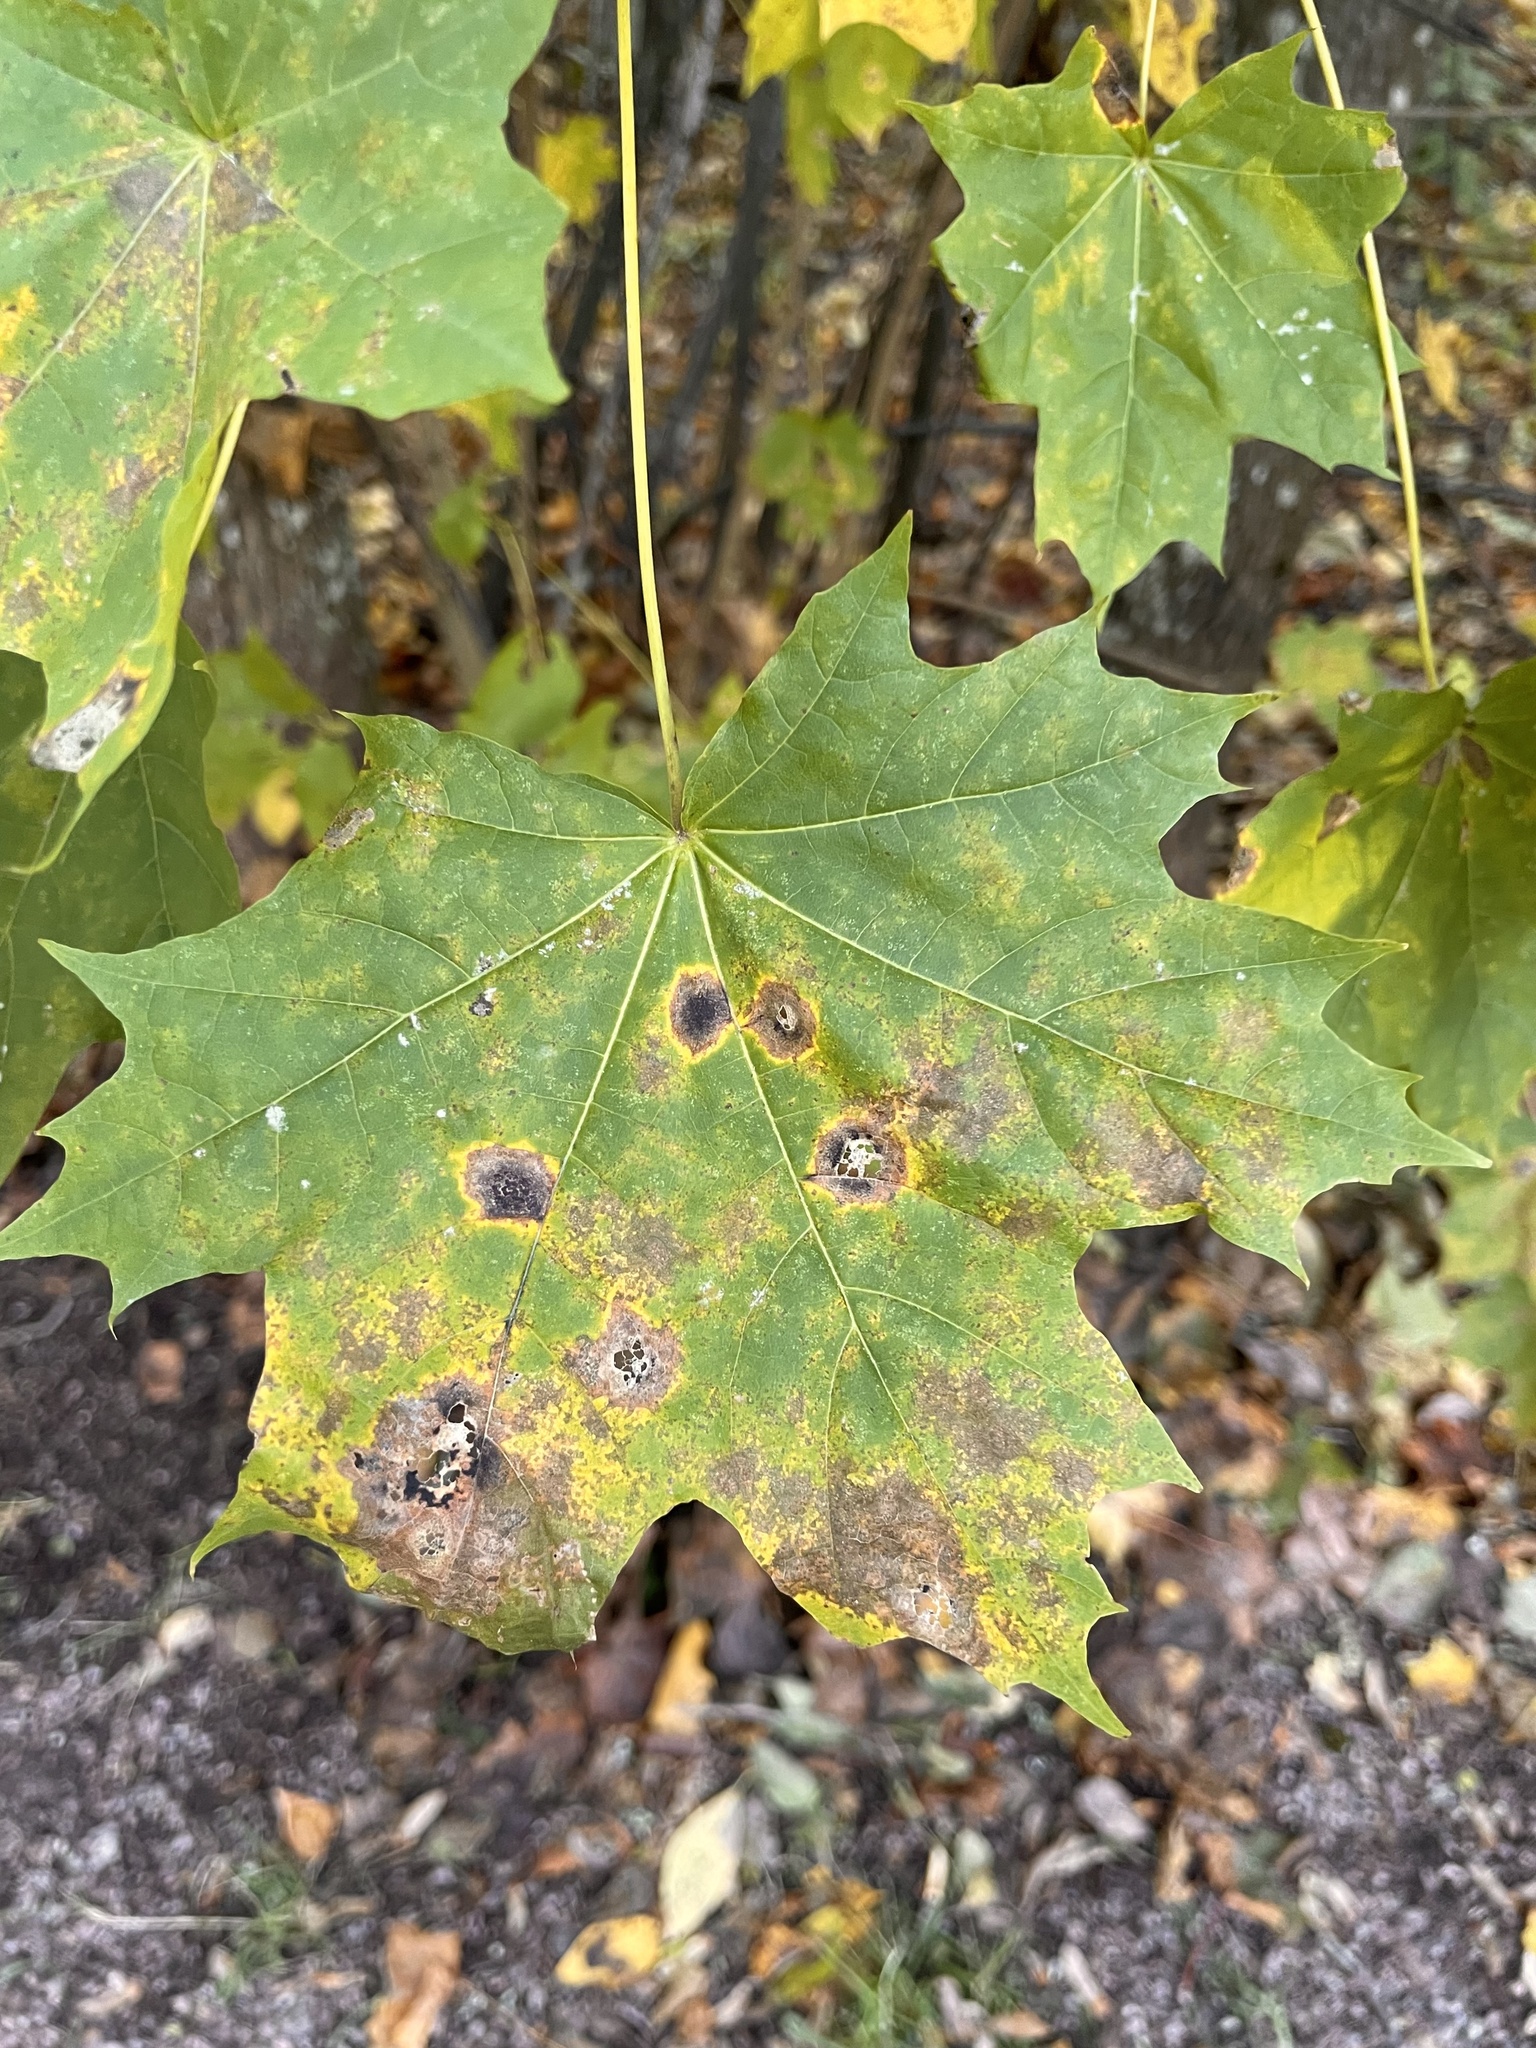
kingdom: Fungi
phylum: Ascomycota
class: Leotiomycetes
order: Rhytismatales
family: Rhytismataceae
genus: Rhytisma
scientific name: Rhytisma acerinum
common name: European tar spot
